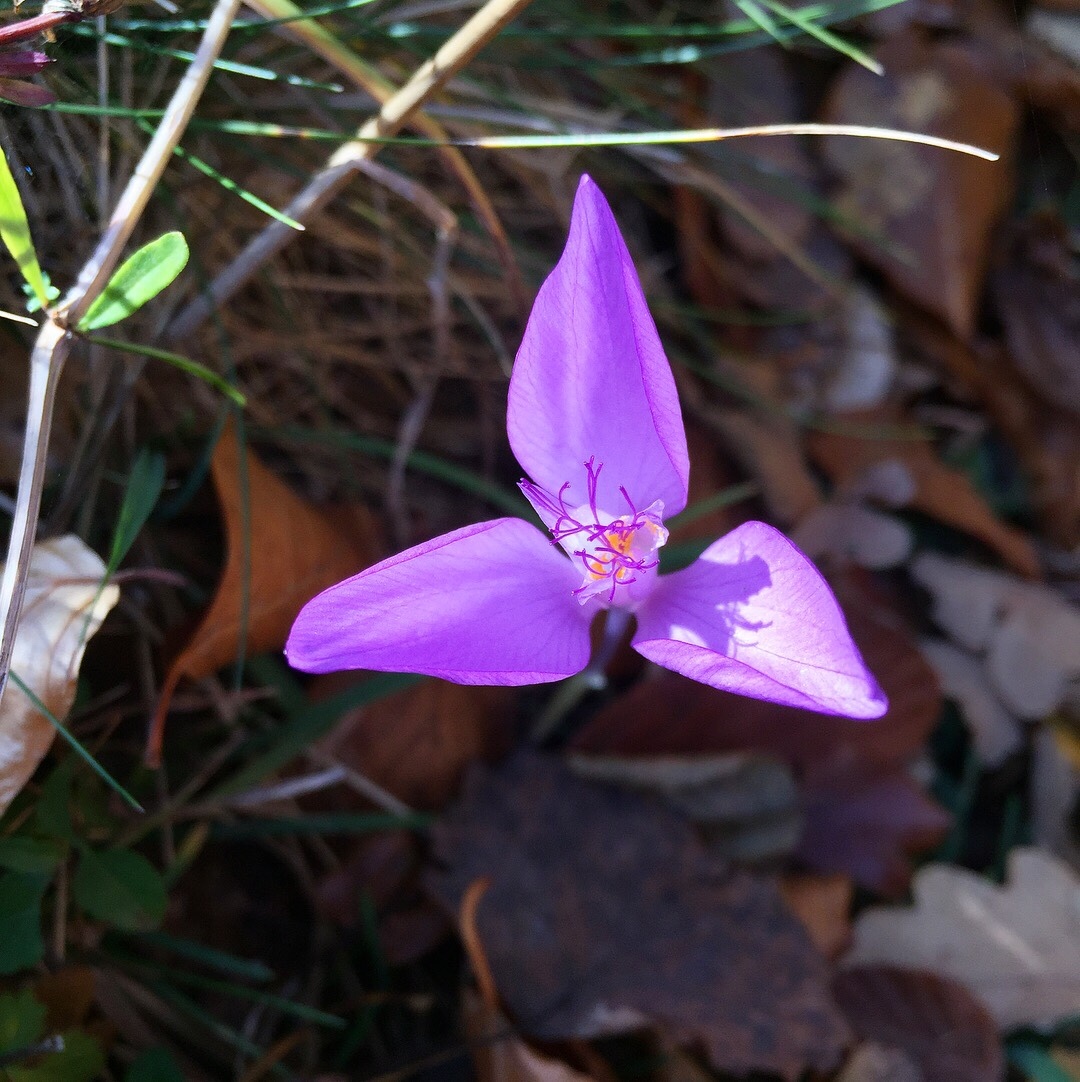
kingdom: Plantae
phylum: Tracheophyta
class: Liliopsida
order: Asparagales
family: Iridaceae
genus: Crocus
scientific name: Crocus banaticus
